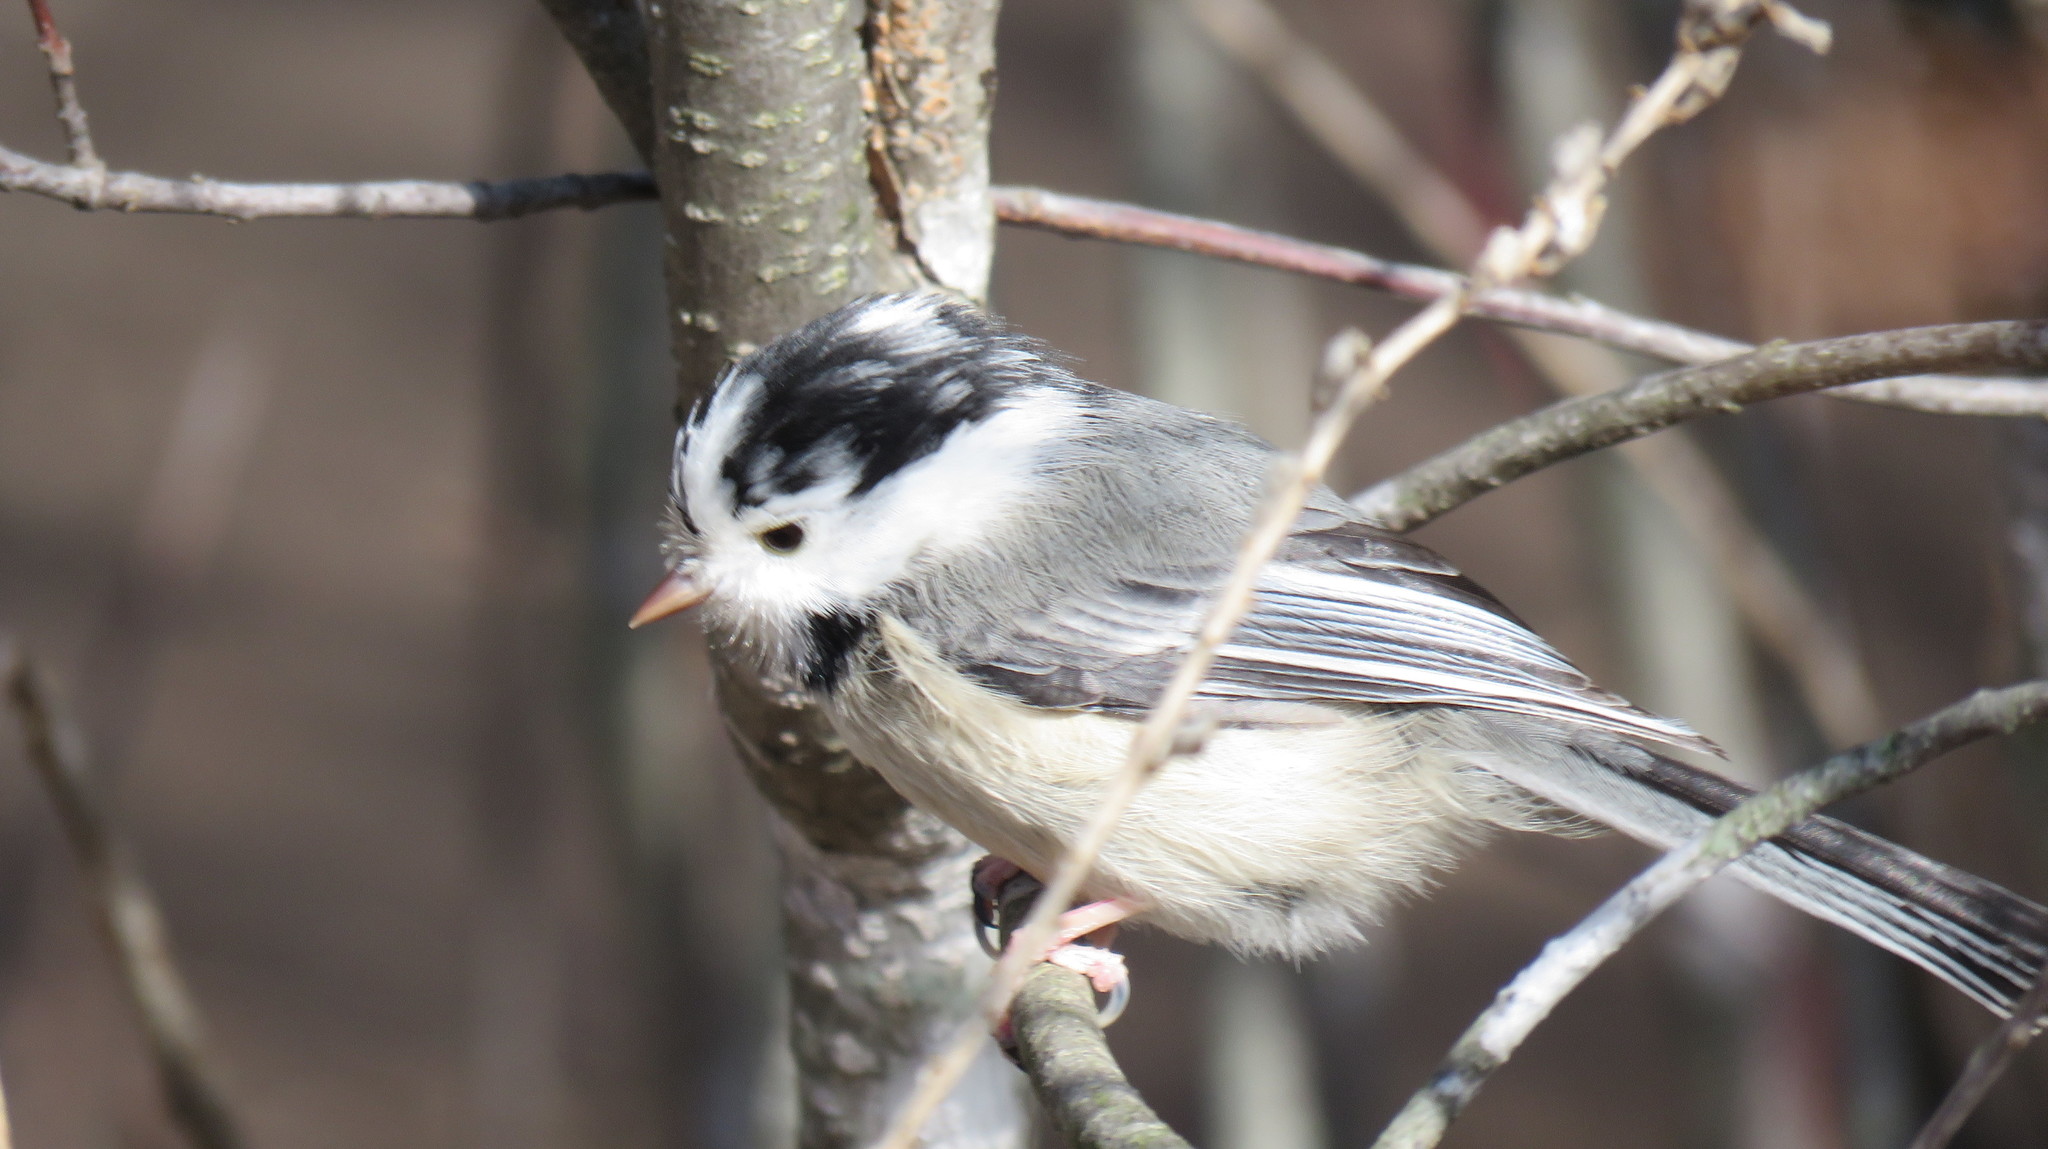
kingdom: Animalia
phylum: Chordata
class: Aves
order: Passeriformes
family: Paridae
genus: Poecile
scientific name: Poecile atricapillus
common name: Black-capped chickadee
